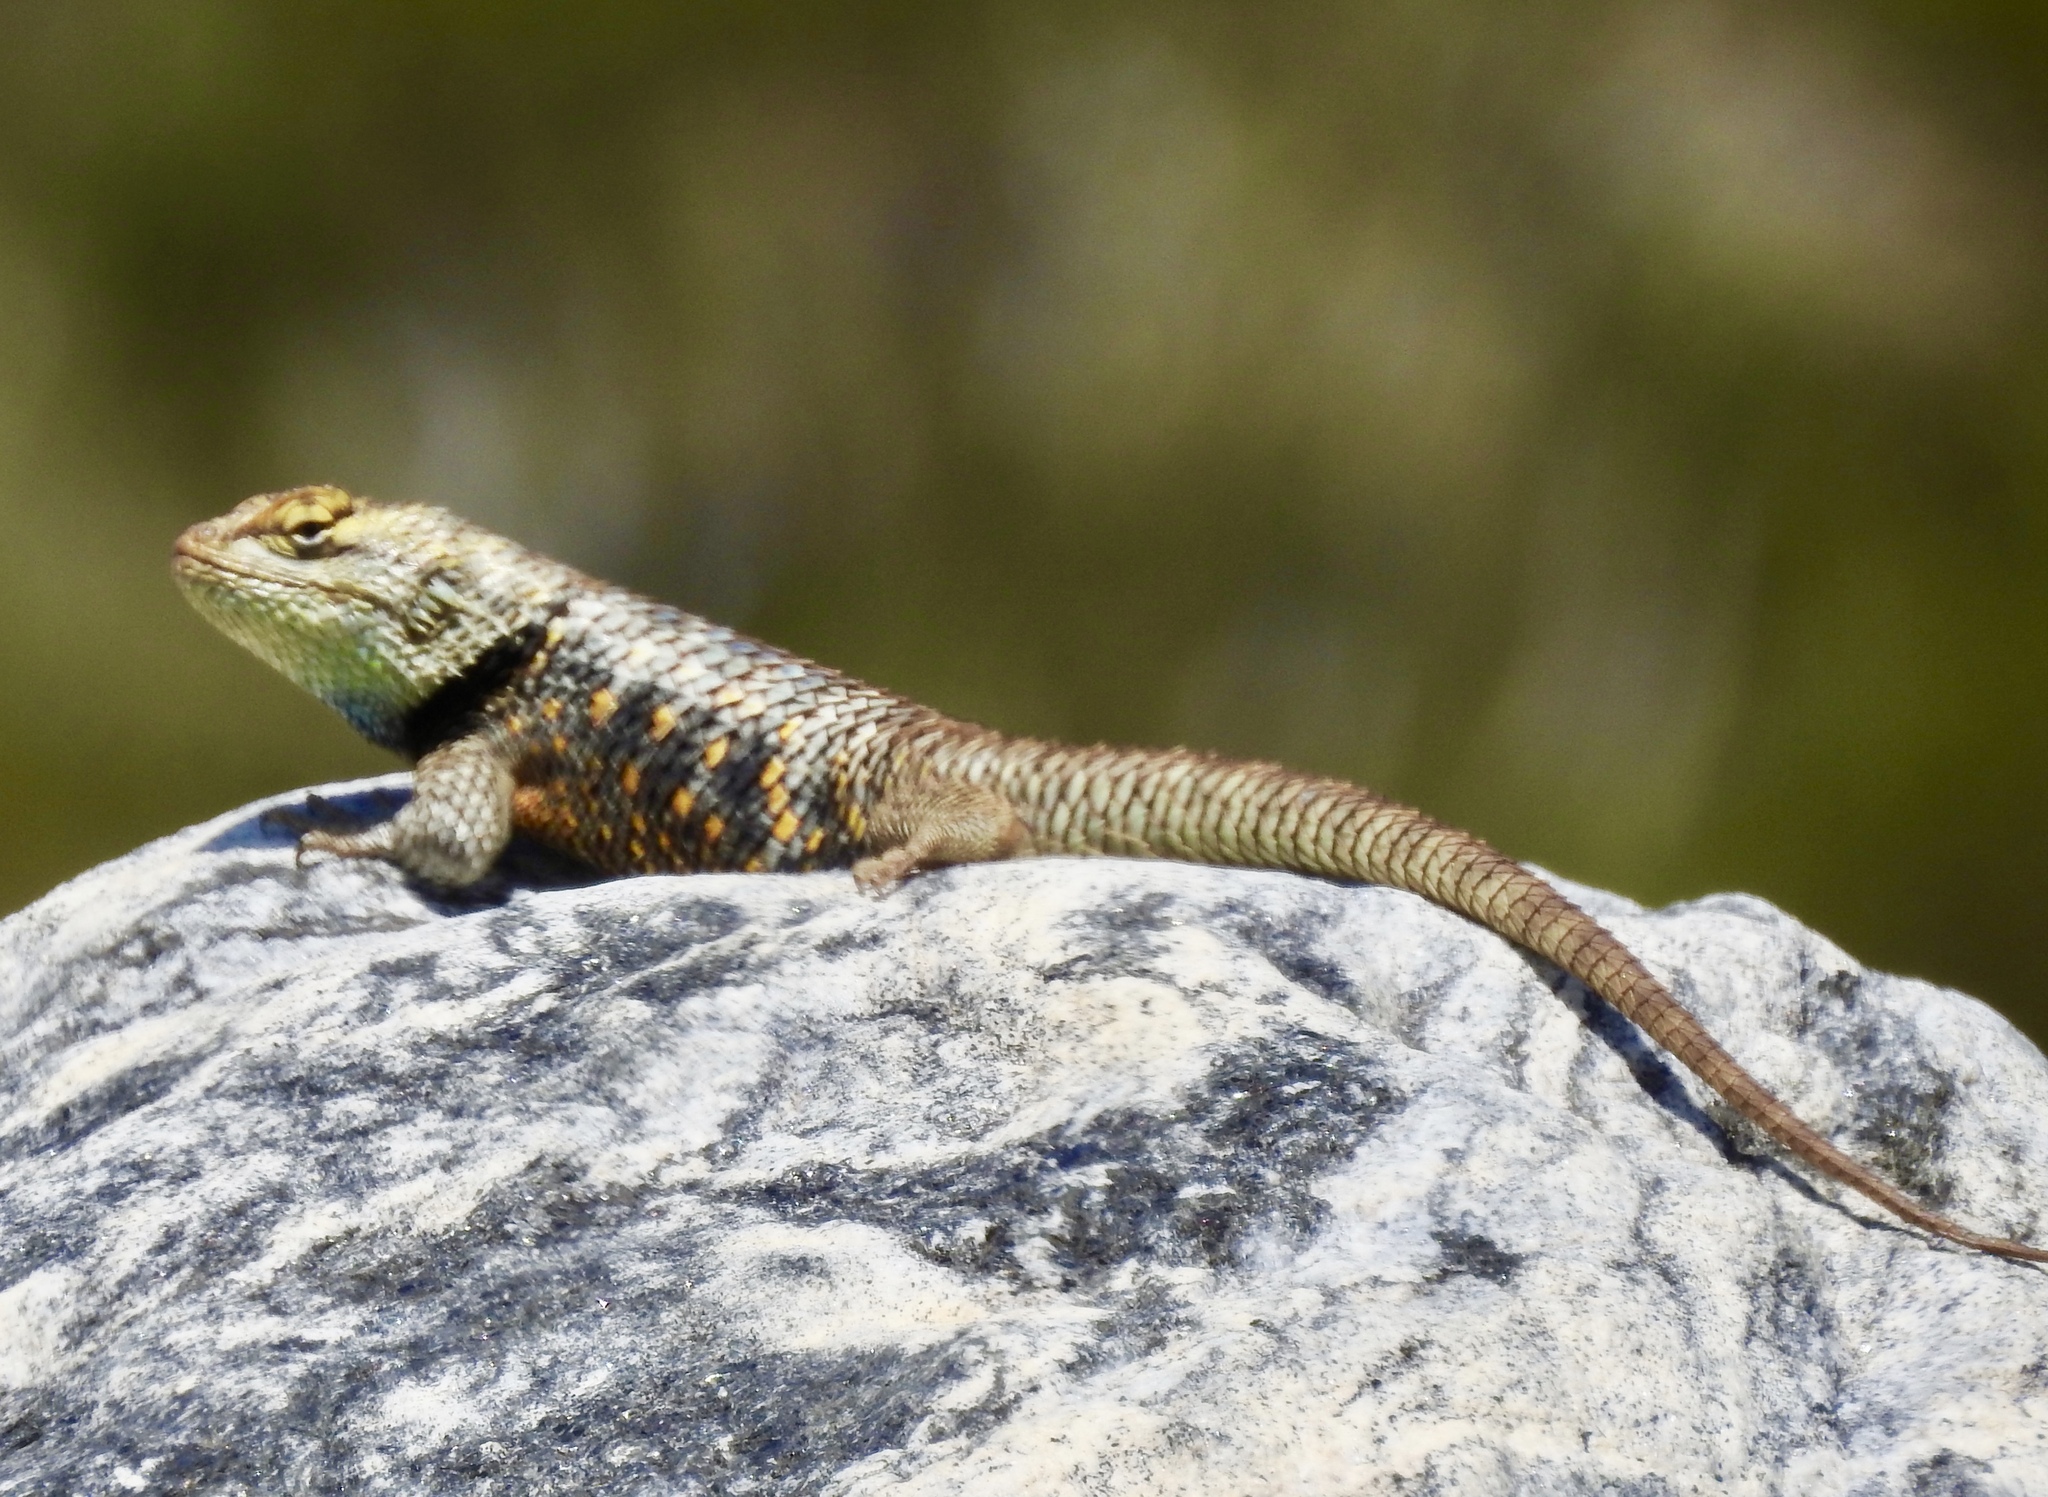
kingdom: Animalia
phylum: Chordata
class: Squamata
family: Phrynosomatidae
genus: Sceloporus
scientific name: Sceloporus magister
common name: Desert spiny lizard
